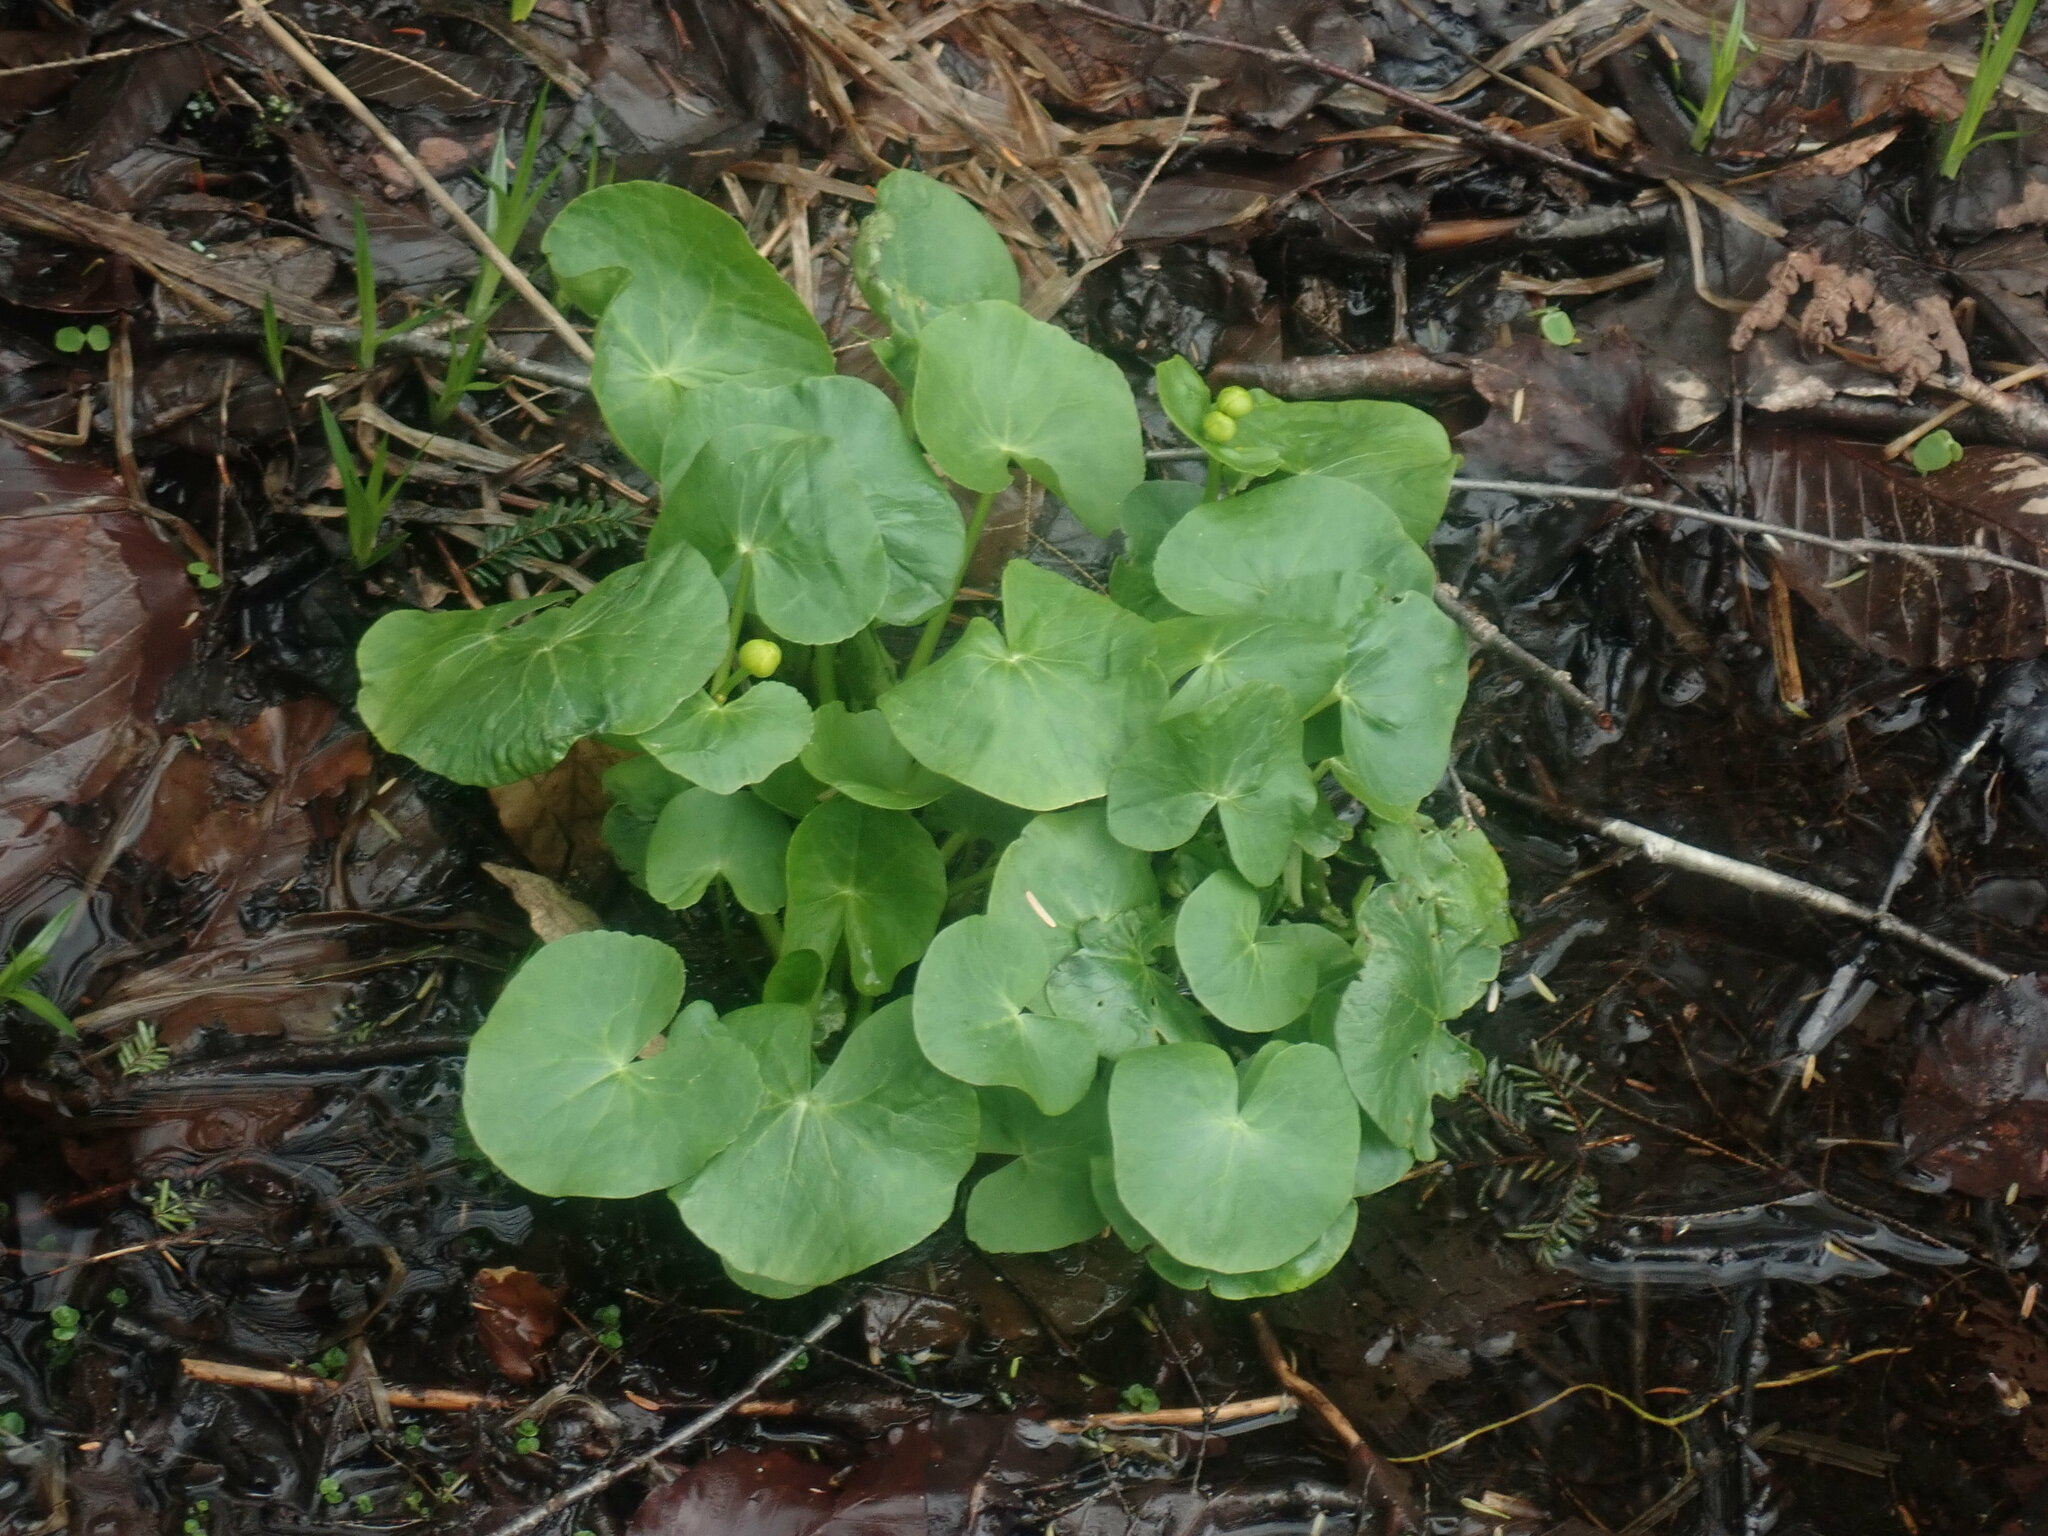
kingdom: Plantae
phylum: Tracheophyta
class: Magnoliopsida
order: Ranunculales
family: Ranunculaceae
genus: Caltha
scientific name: Caltha palustris
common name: Marsh marigold
